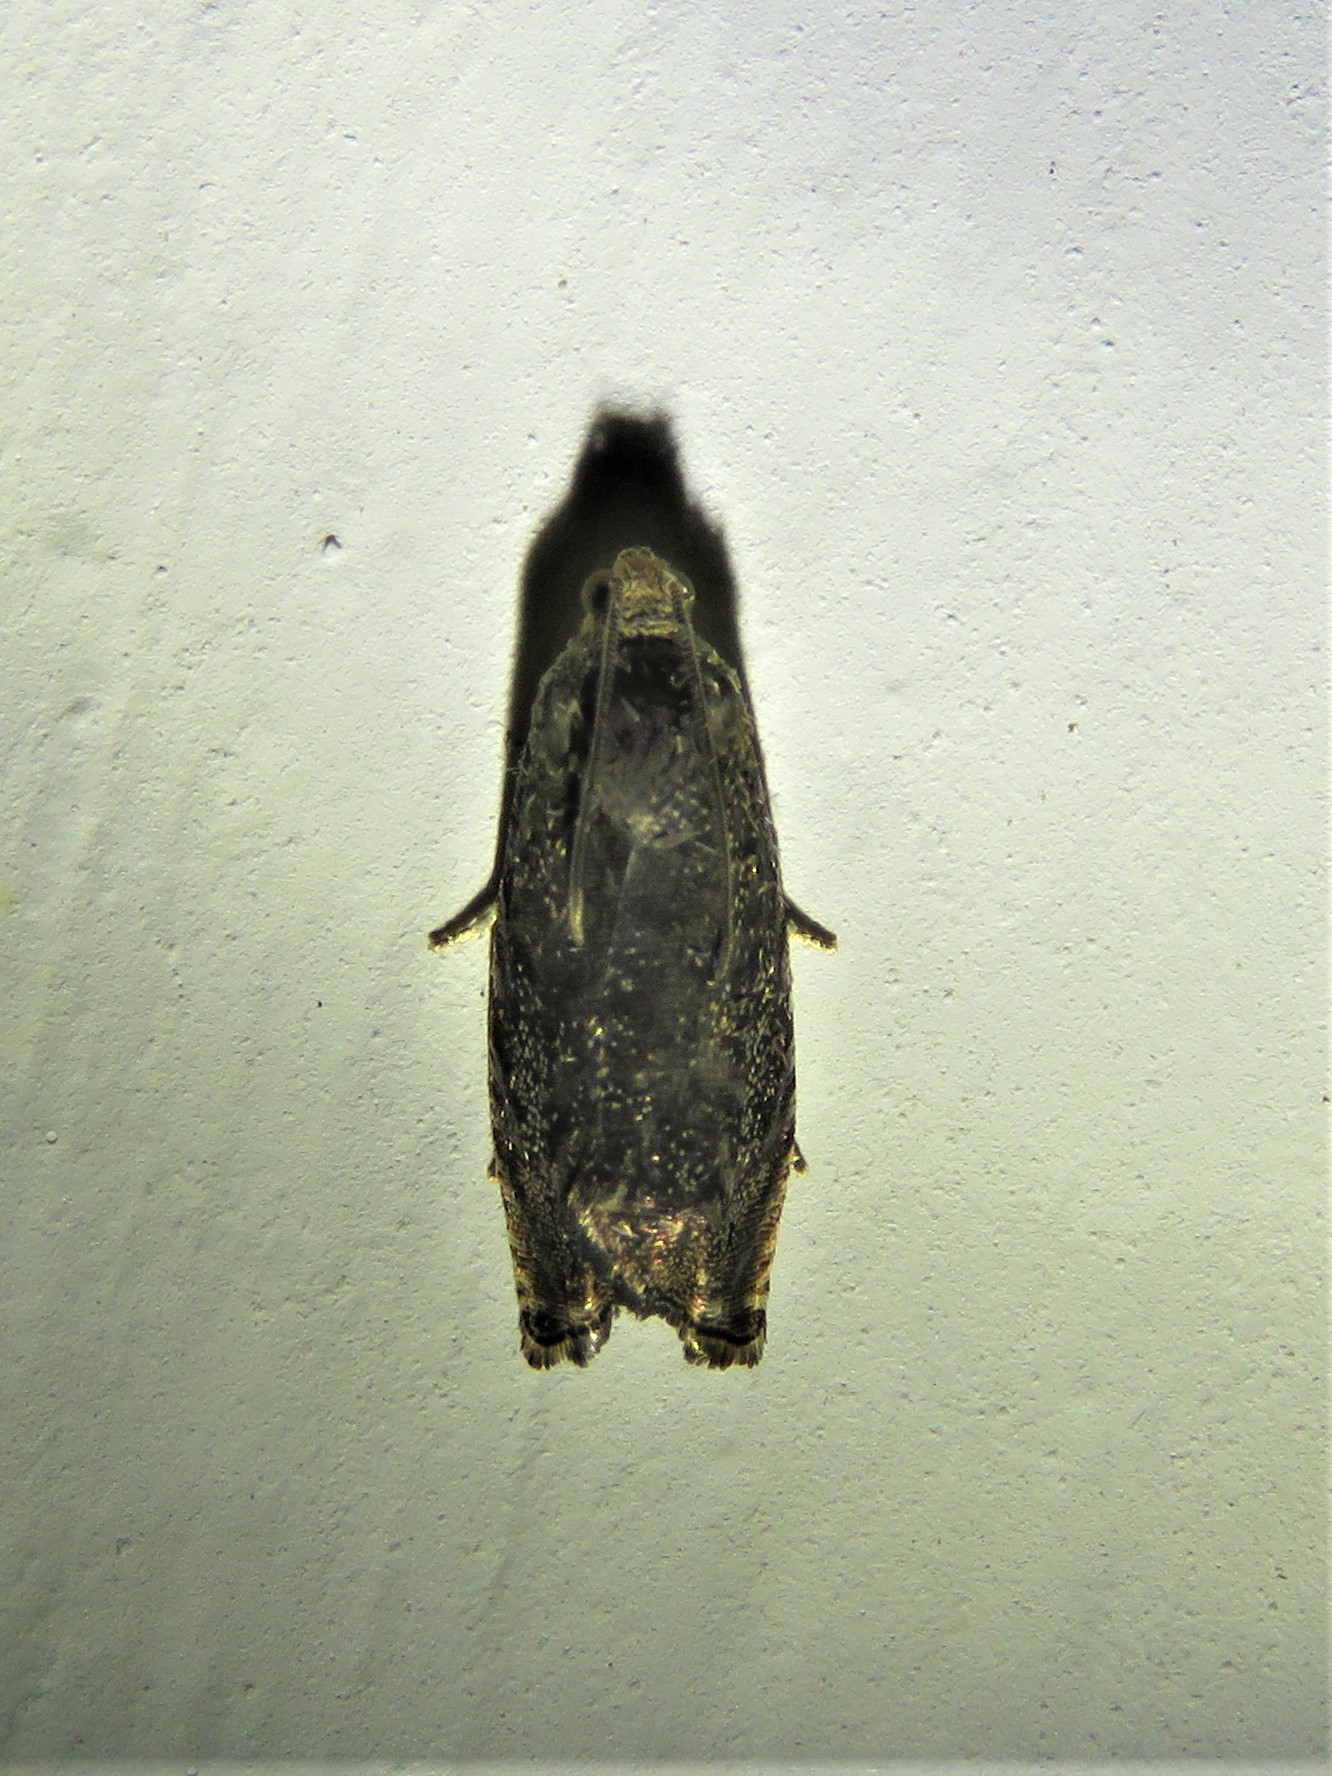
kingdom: Animalia
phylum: Arthropoda
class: Insecta
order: Lepidoptera
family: Tortricidae
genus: Cydia
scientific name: Cydia caryana
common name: Hickory shuckworm moth
